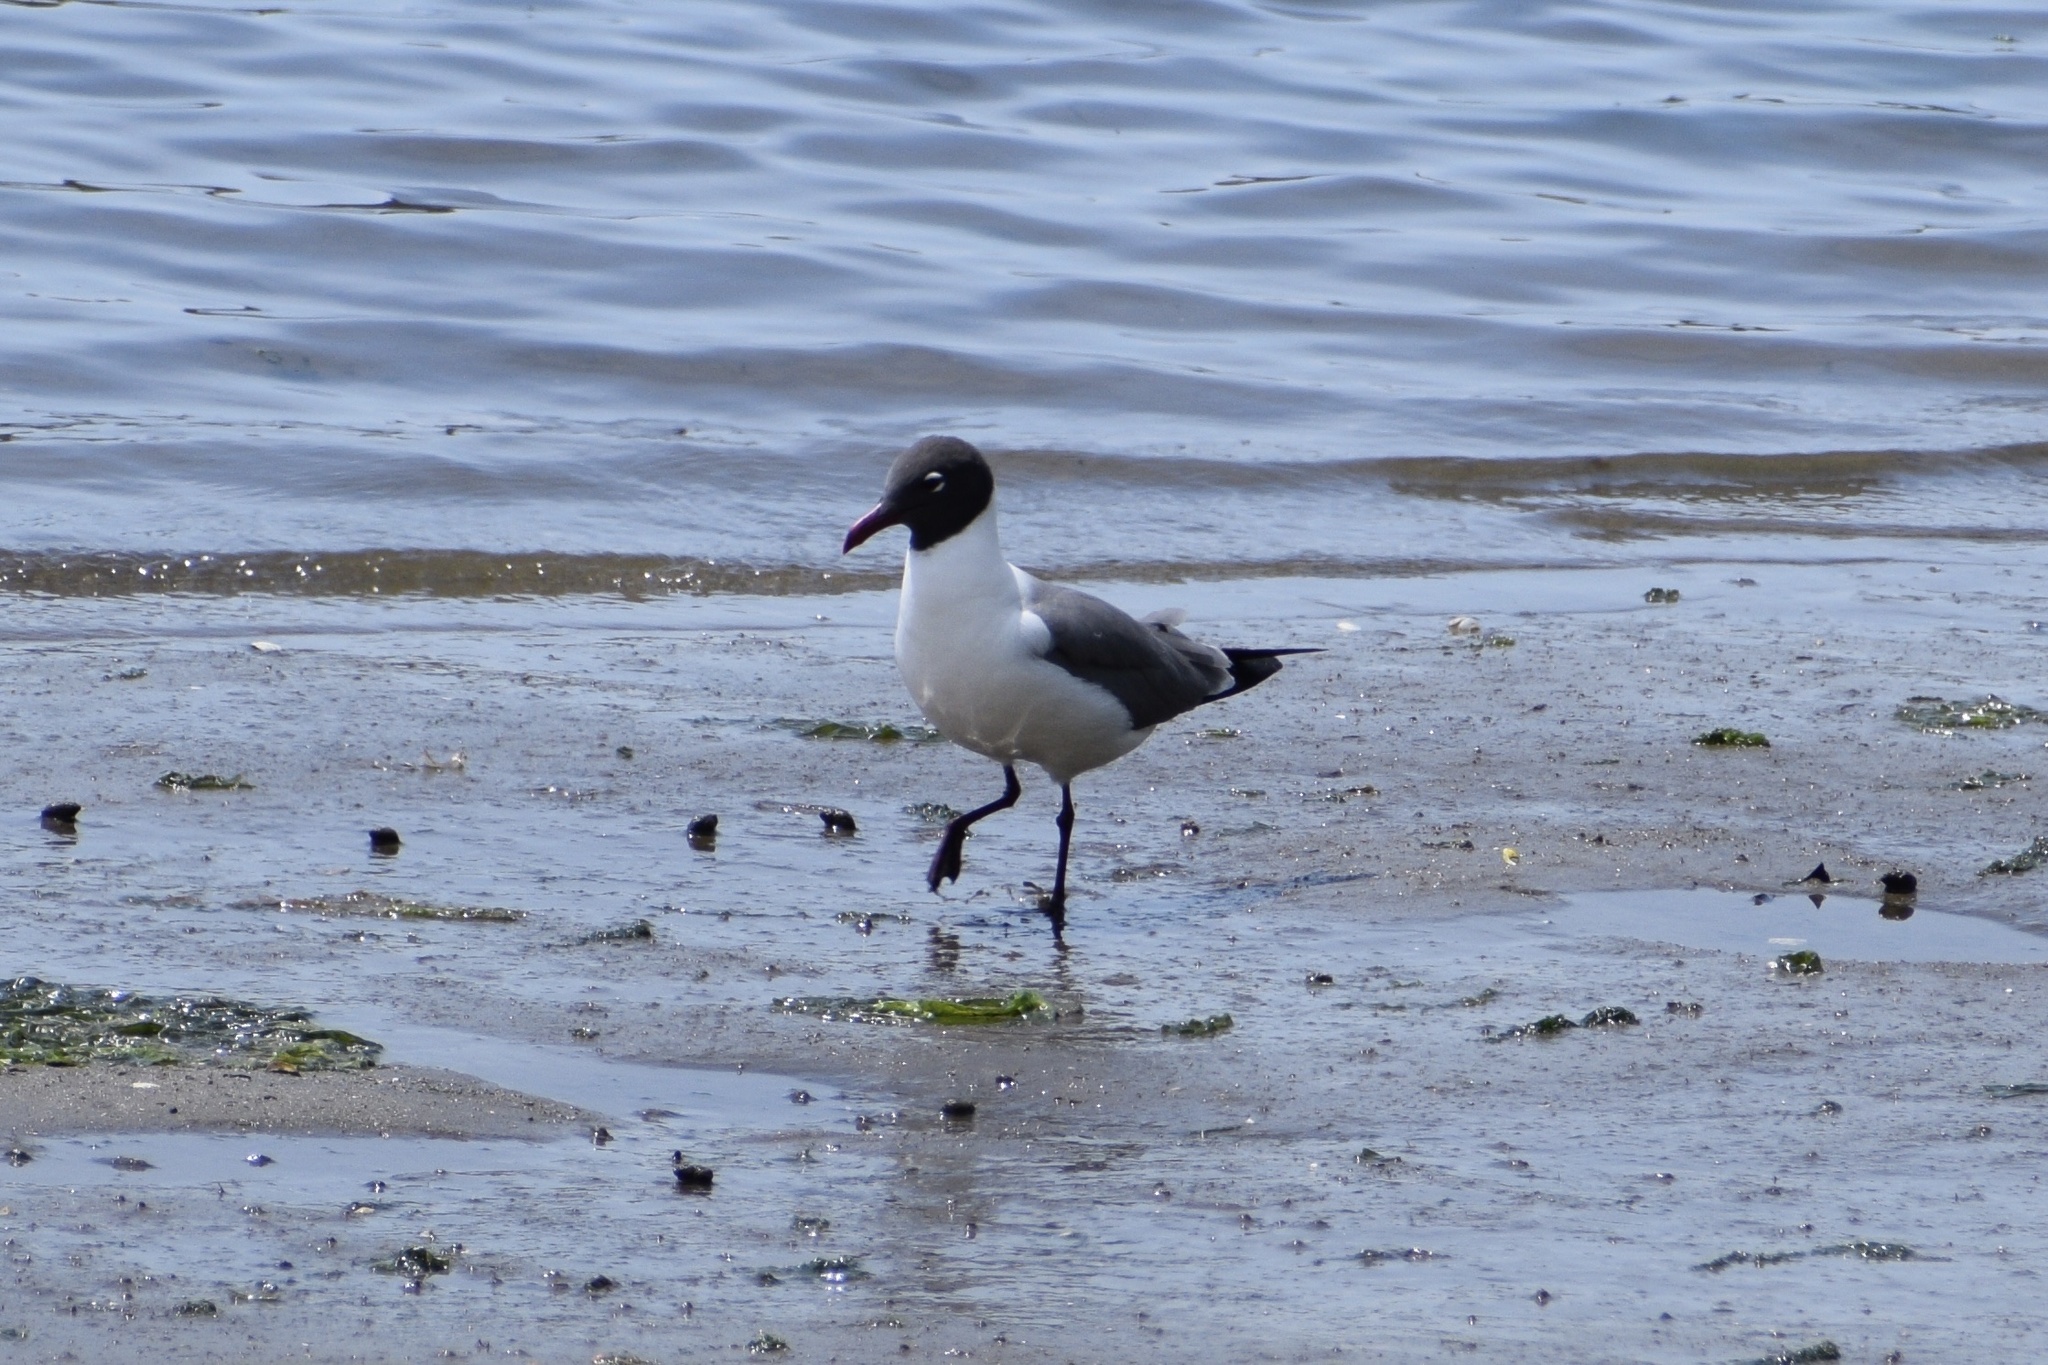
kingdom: Animalia
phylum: Chordata
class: Aves
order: Charadriiformes
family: Laridae
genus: Leucophaeus
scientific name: Leucophaeus atricilla
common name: Laughing gull
